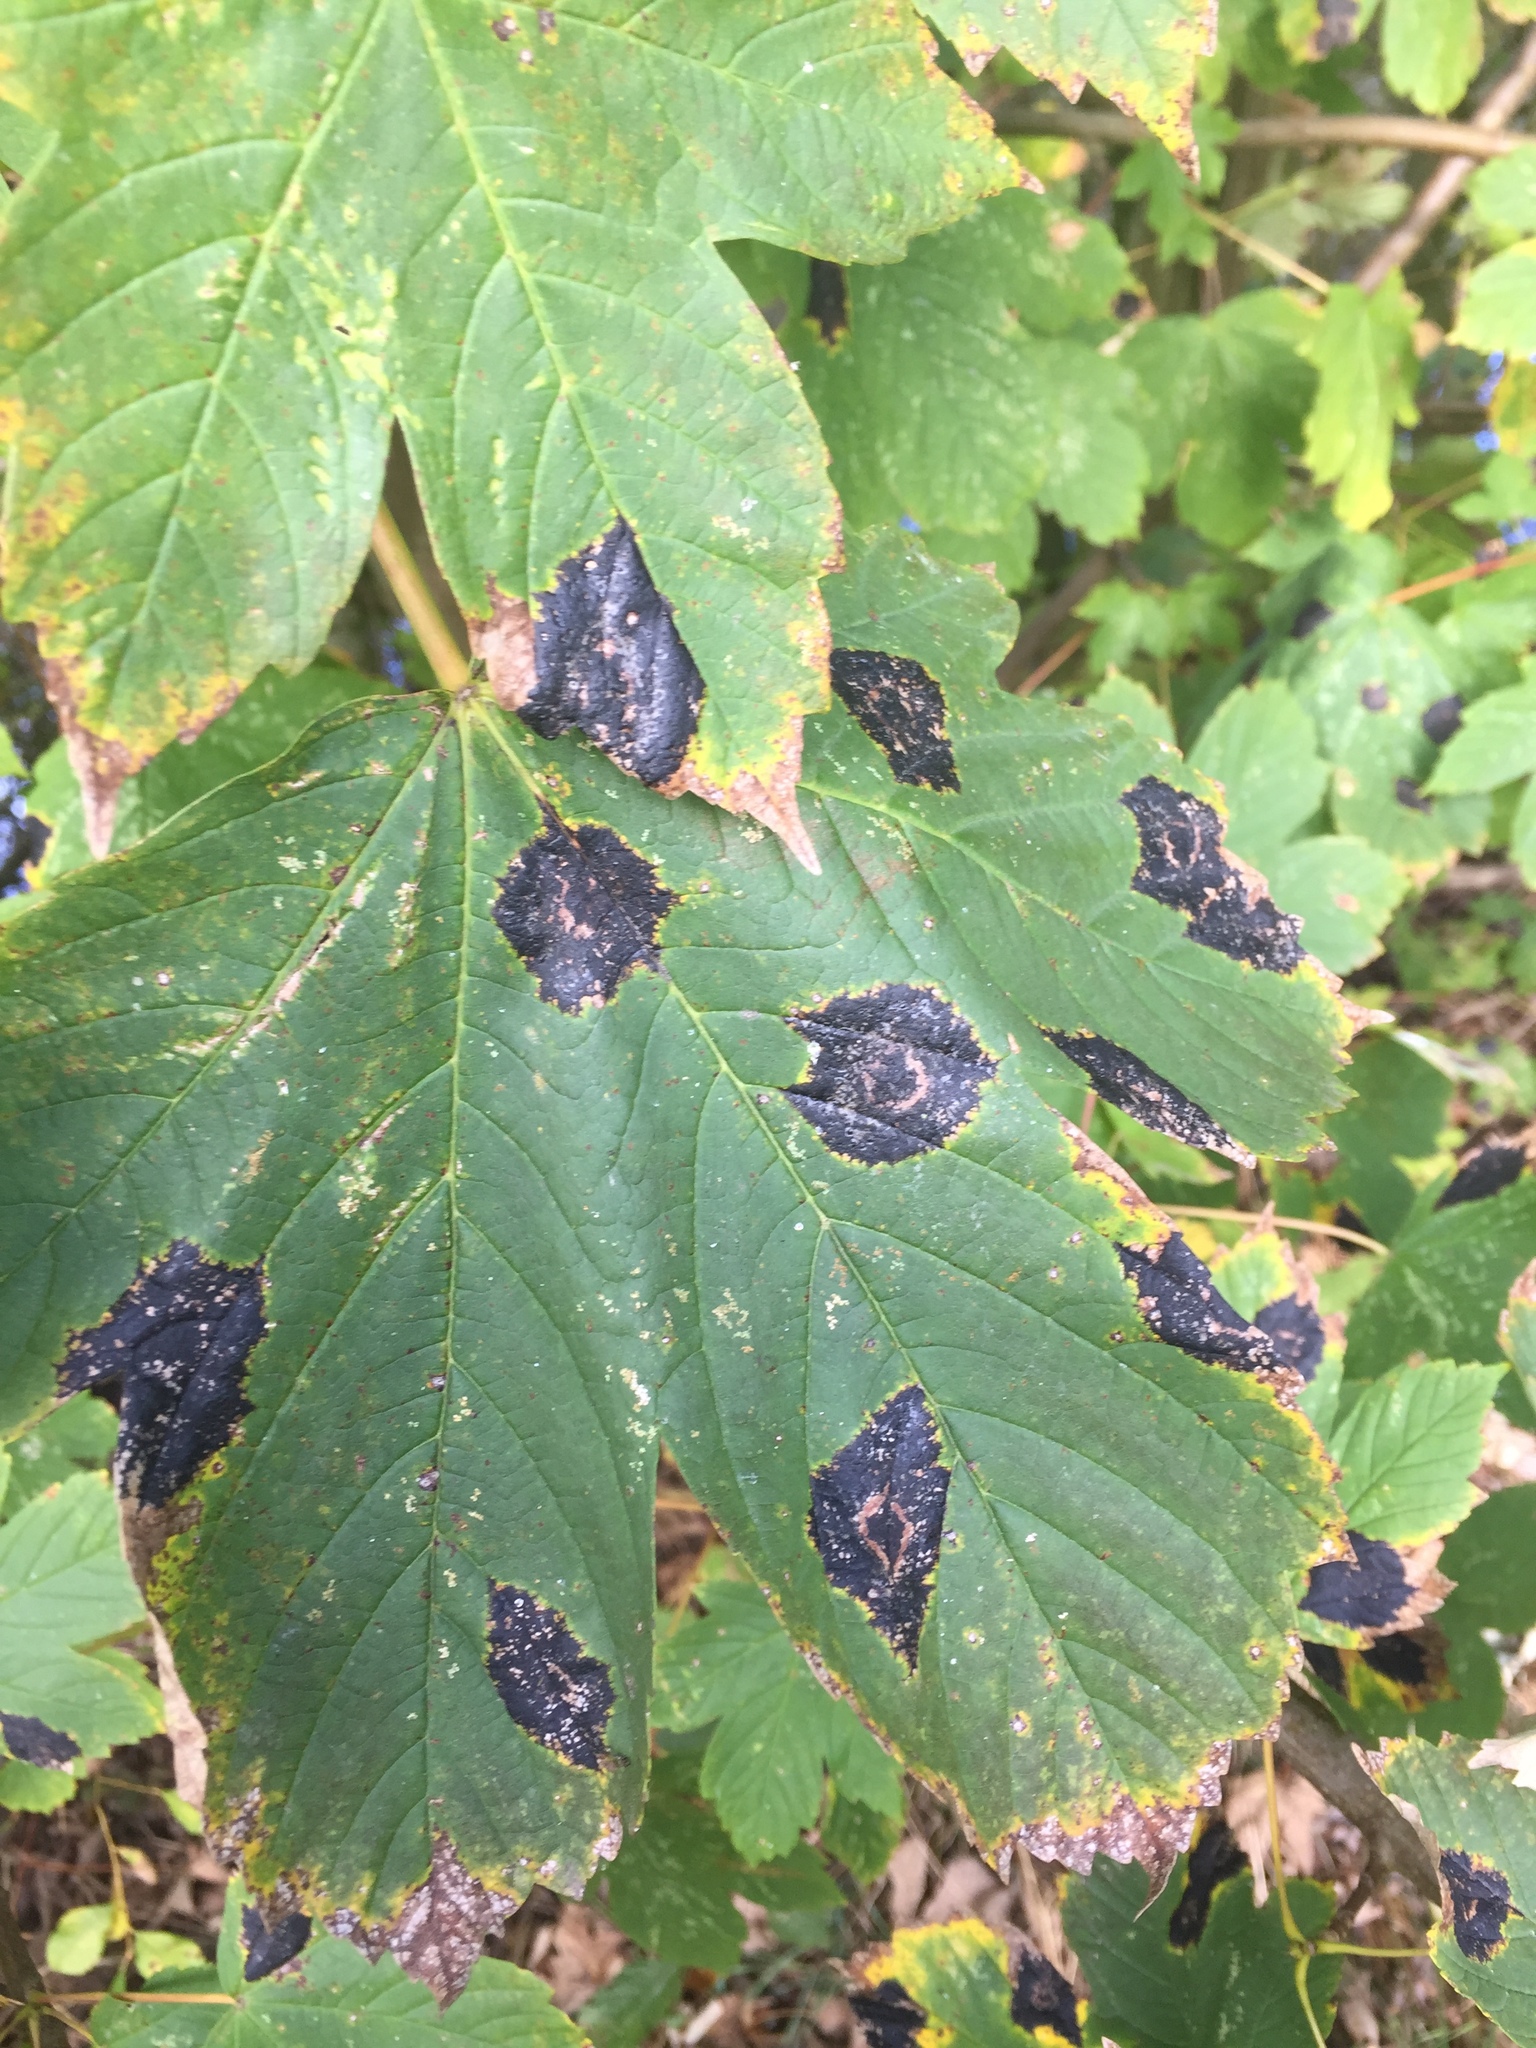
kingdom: Fungi
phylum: Ascomycota
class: Leotiomycetes
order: Rhytismatales
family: Rhytismataceae
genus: Rhytisma
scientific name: Rhytisma acerinum
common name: European tar spot
